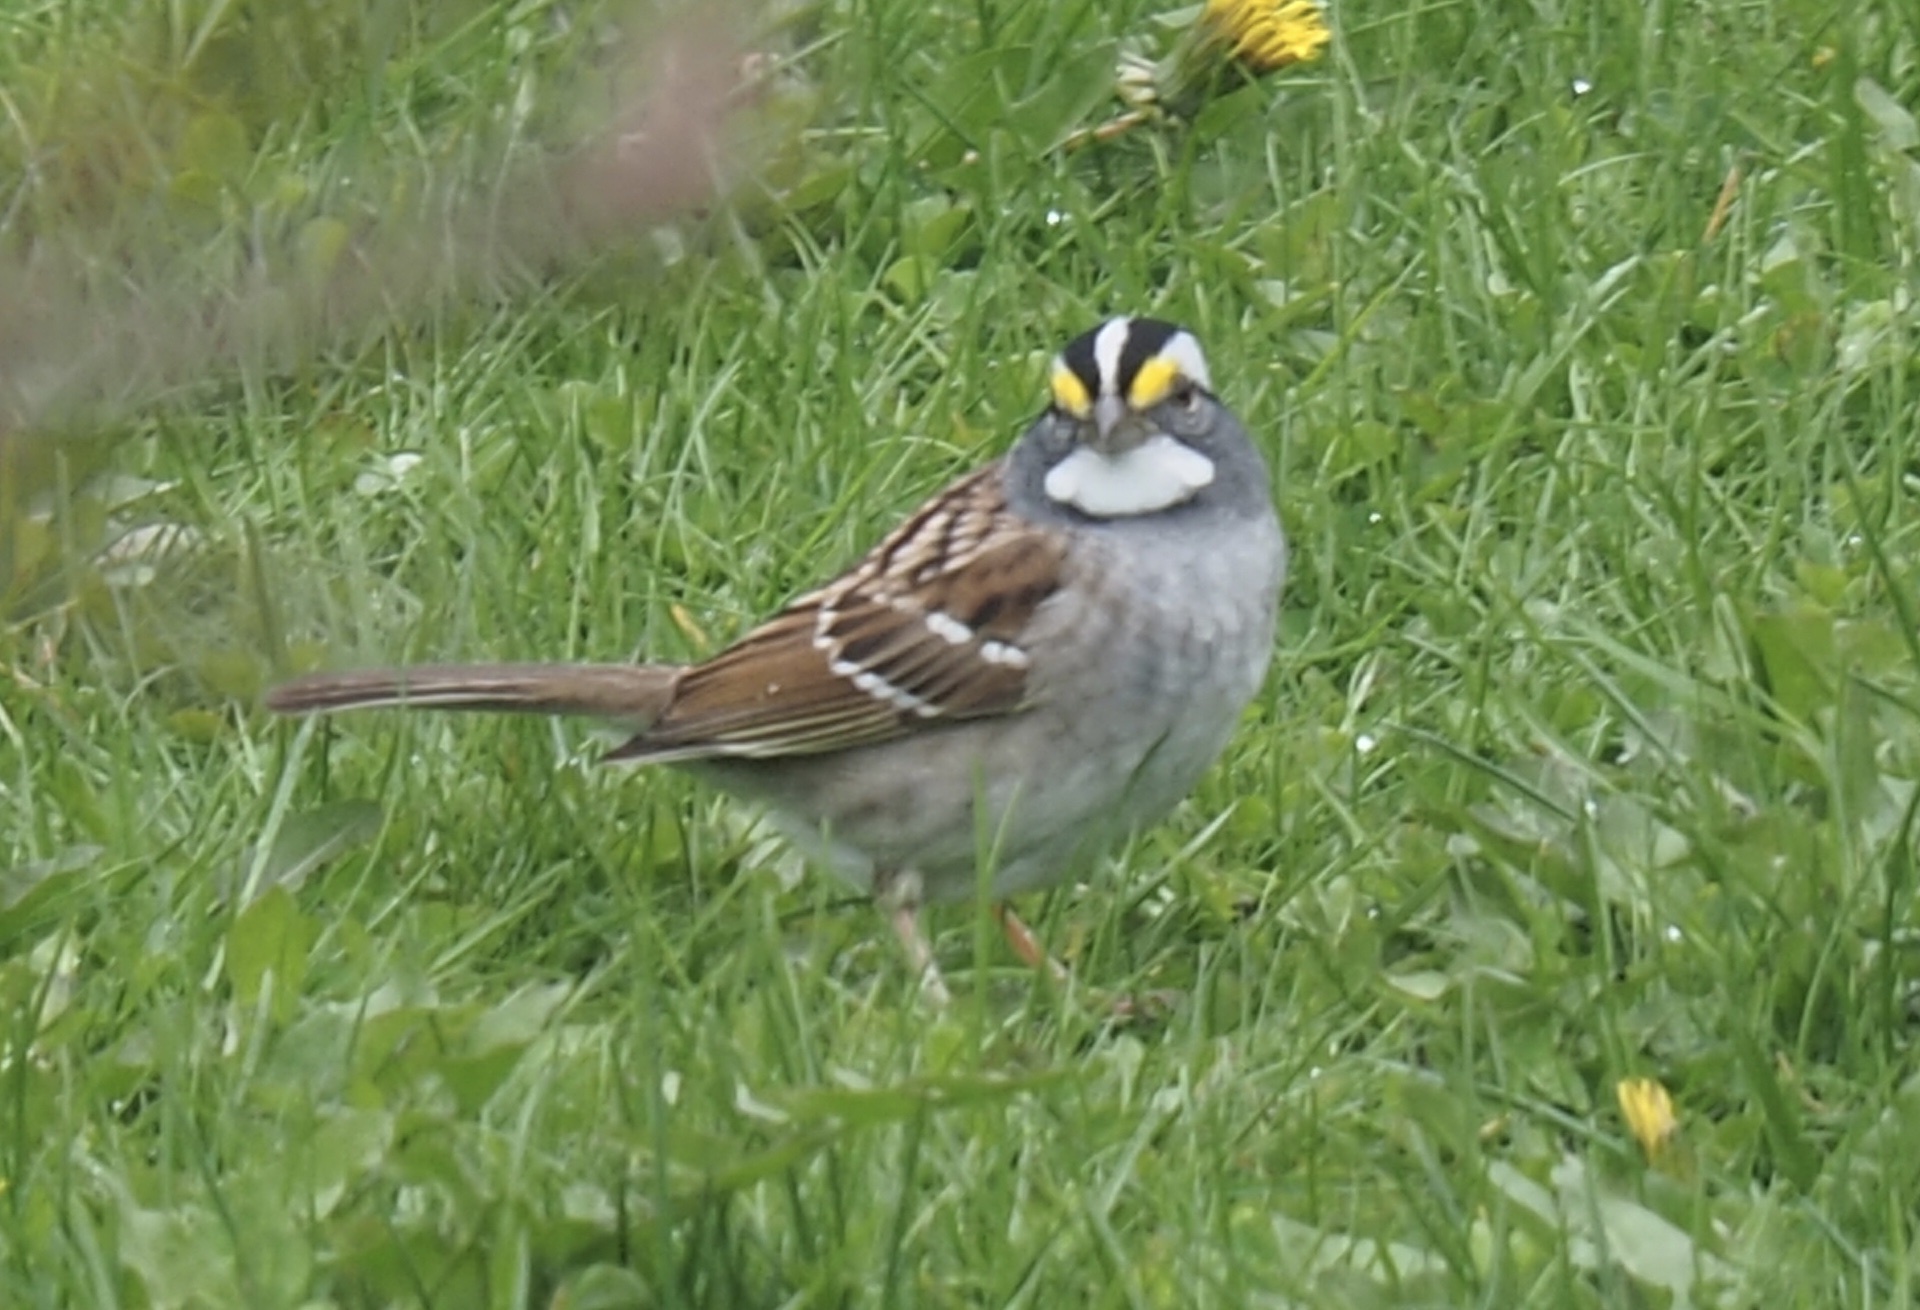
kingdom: Animalia
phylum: Chordata
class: Aves
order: Passeriformes
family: Passerellidae
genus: Zonotrichia
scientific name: Zonotrichia albicollis
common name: White-throated sparrow
